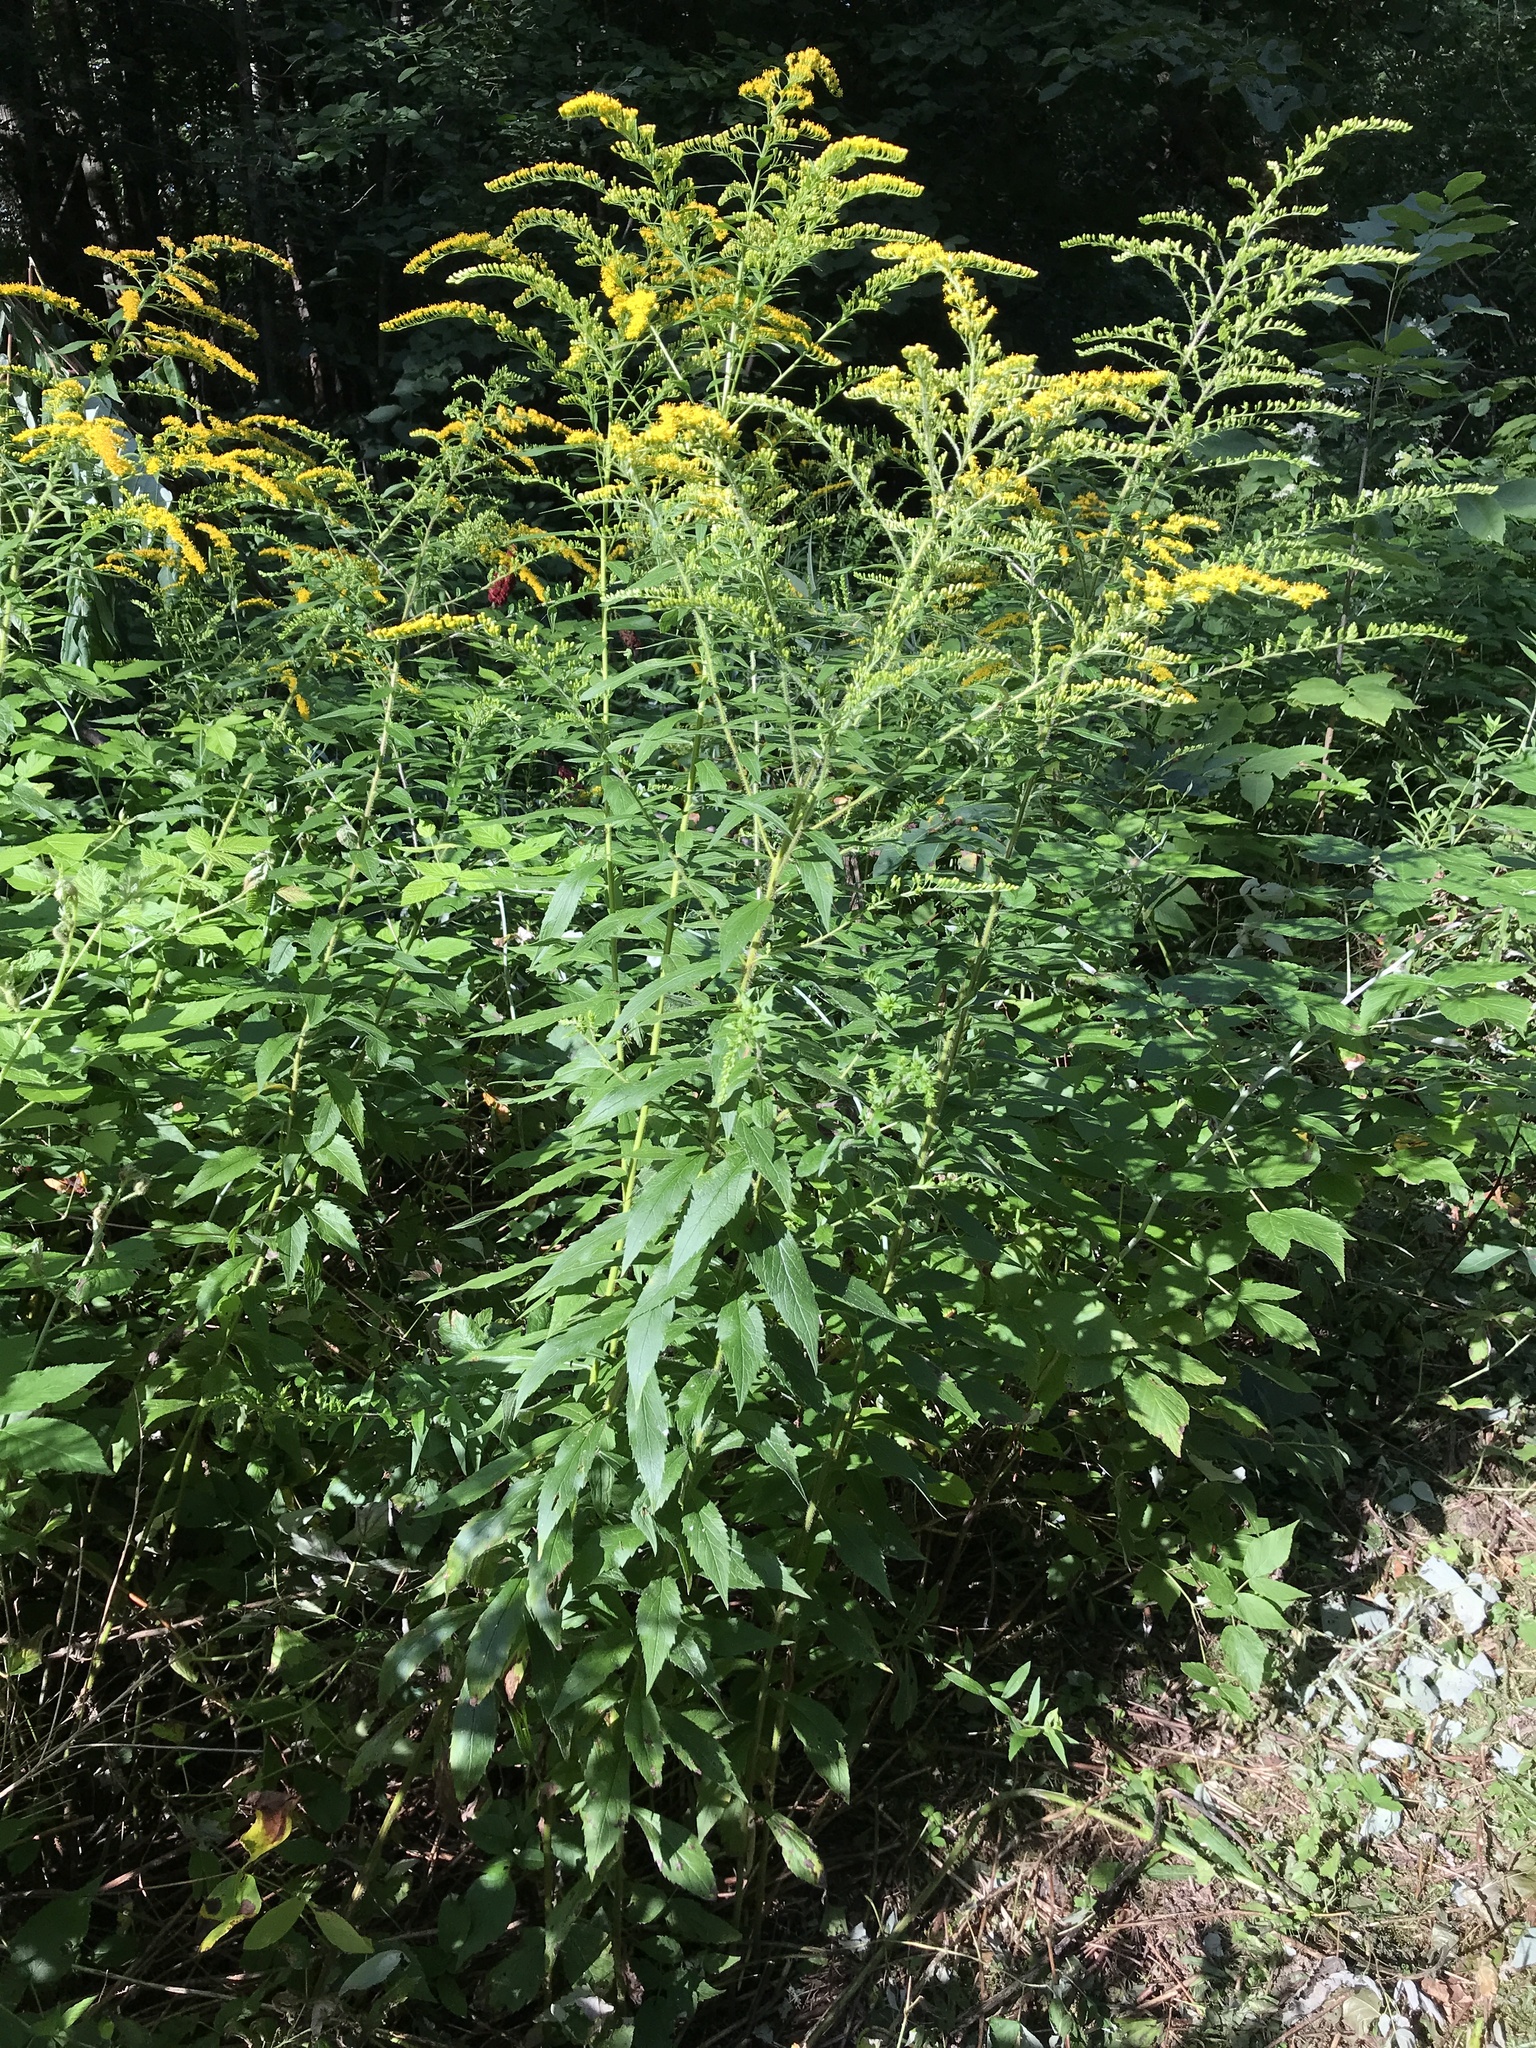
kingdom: Plantae
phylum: Tracheophyta
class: Magnoliopsida
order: Asterales
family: Asteraceae
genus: Solidago
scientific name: Solidago rugosa
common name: Rough-stemmed goldenrod
